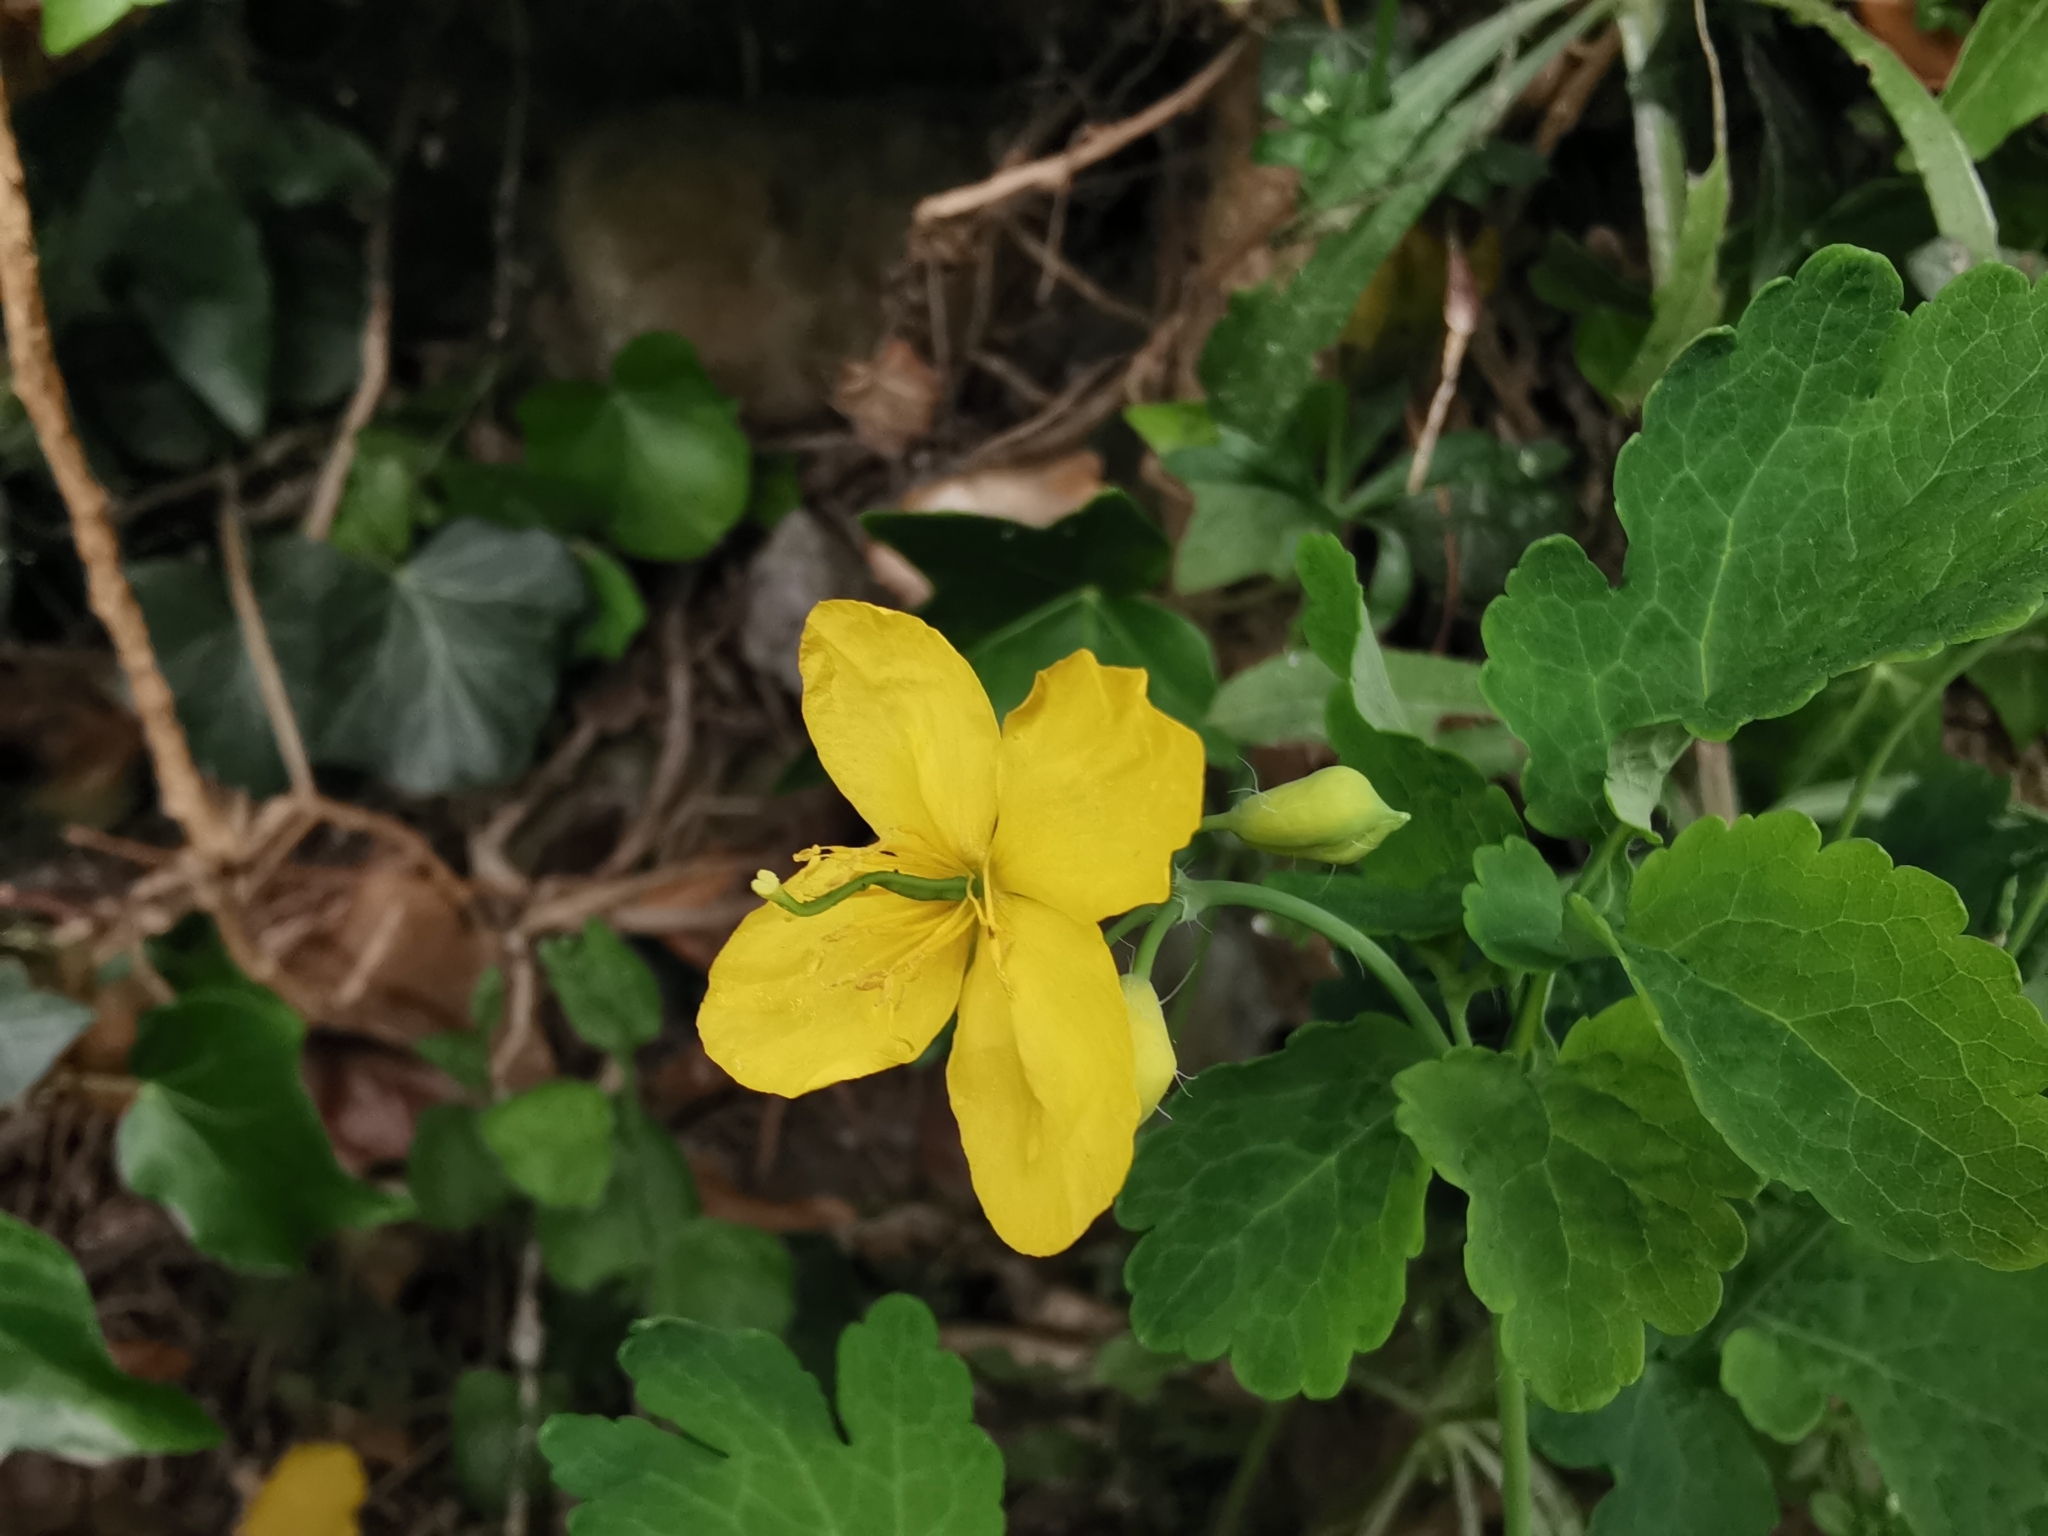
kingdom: Plantae
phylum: Tracheophyta
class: Magnoliopsida
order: Ranunculales
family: Papaveraceae
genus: Chelidonium
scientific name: Chelidonium majus
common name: Greater celandine
